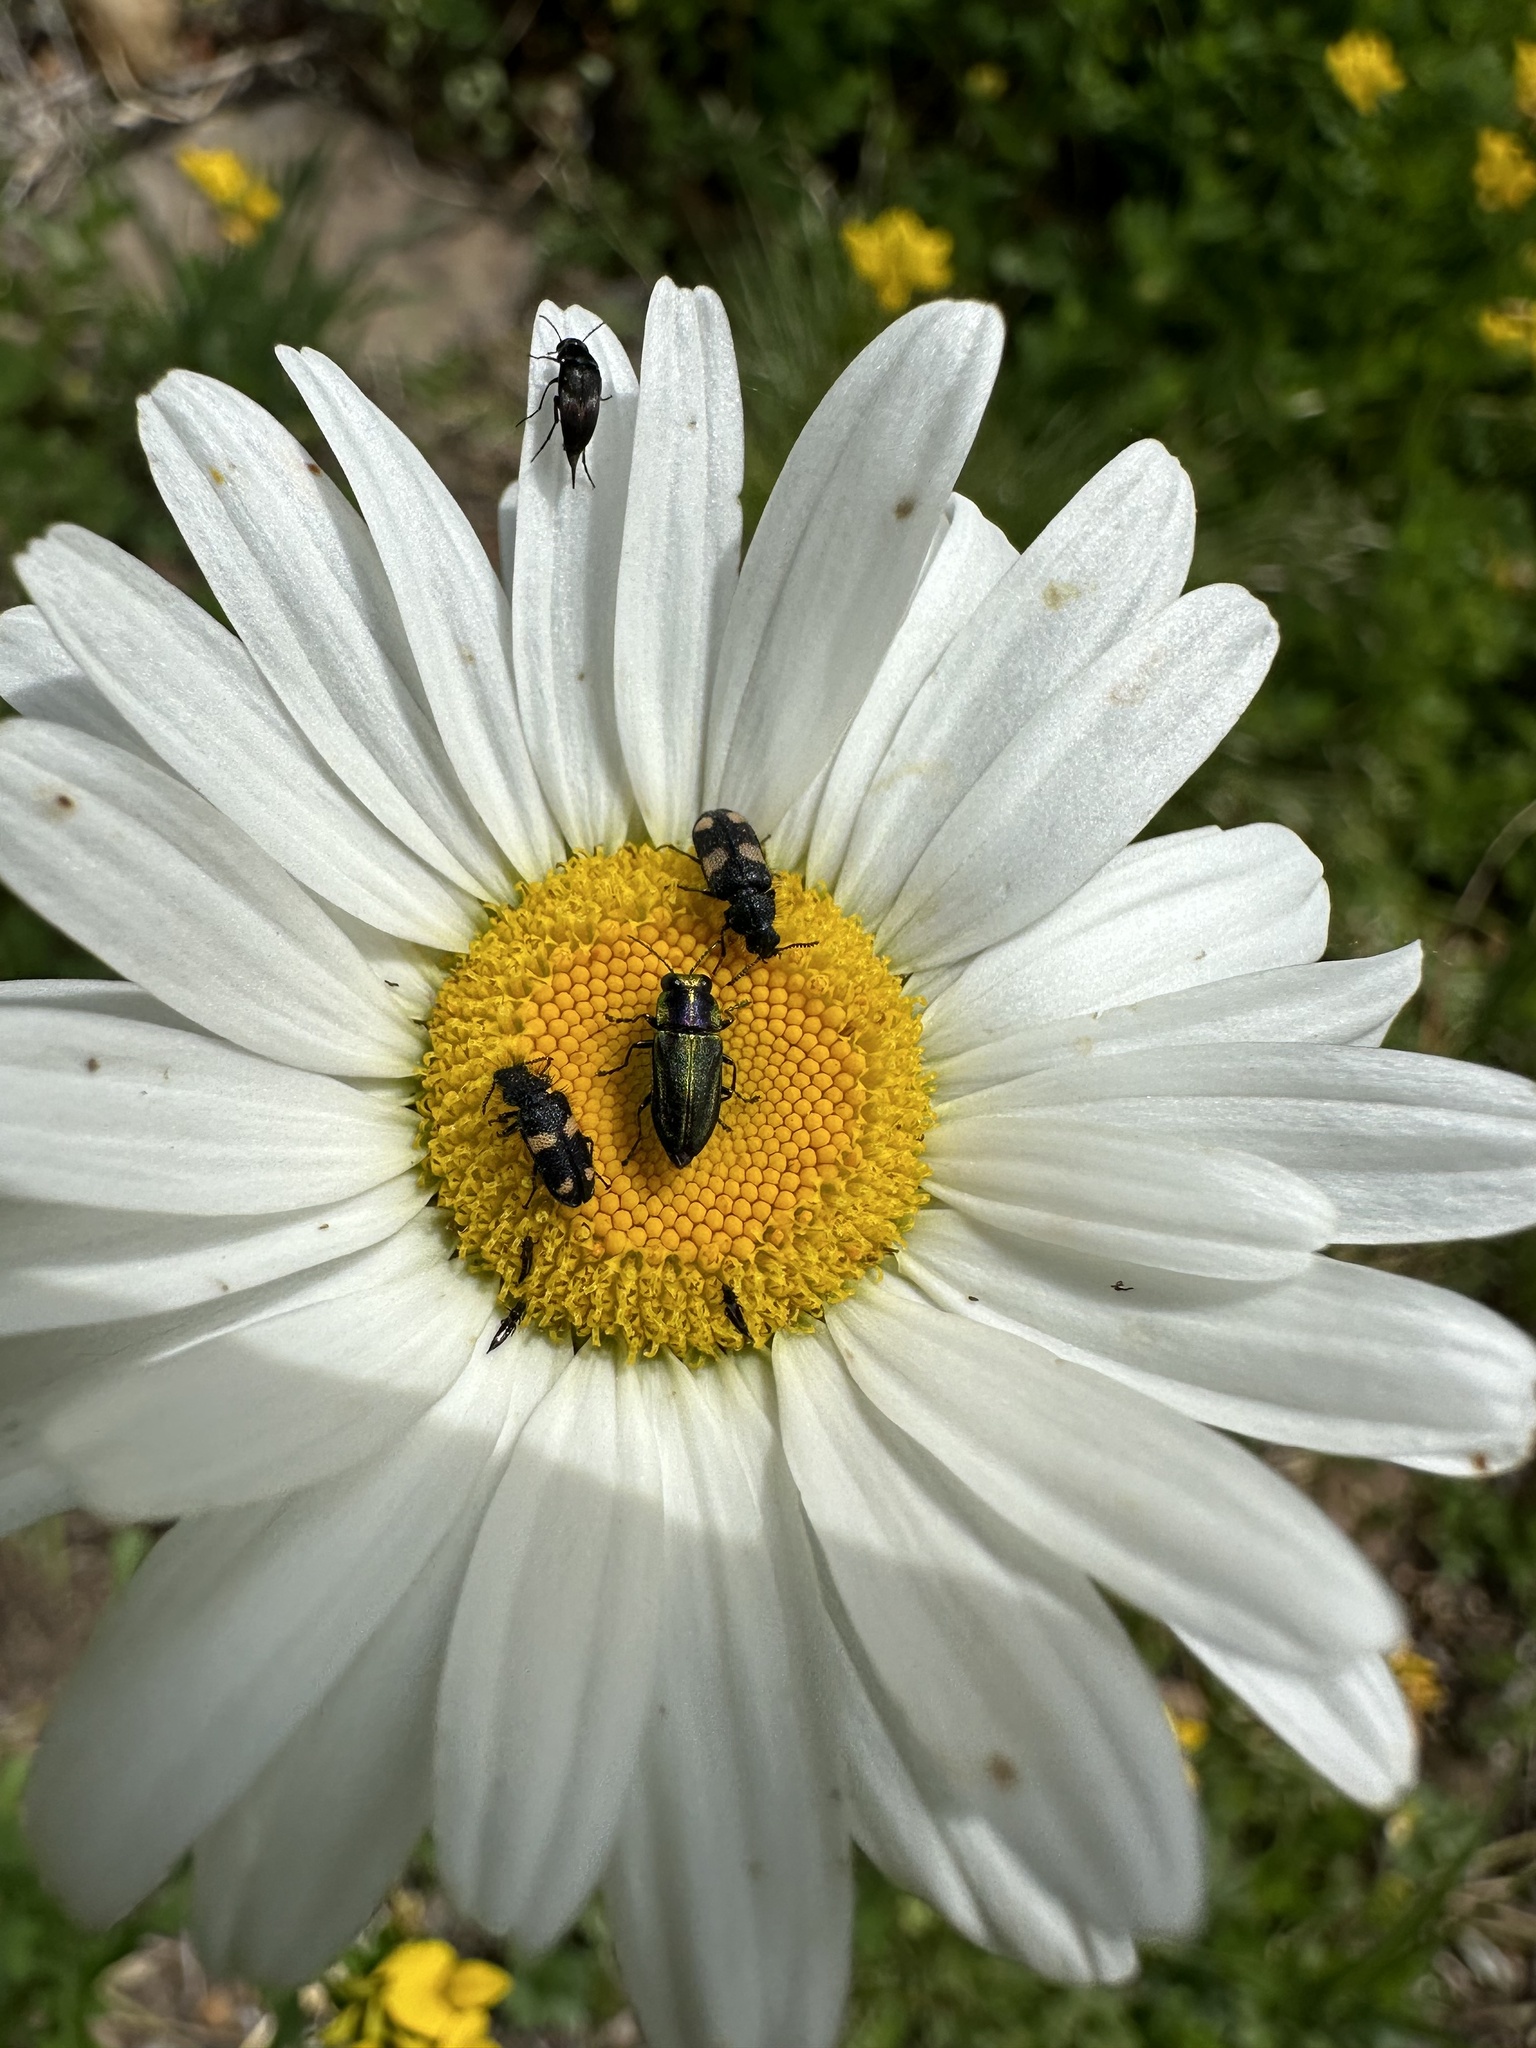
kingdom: Animalia
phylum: Arthropoda
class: Insecta
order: Coleoptera
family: Melyridae
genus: Arthrobrachus
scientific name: Arthrobrachus
